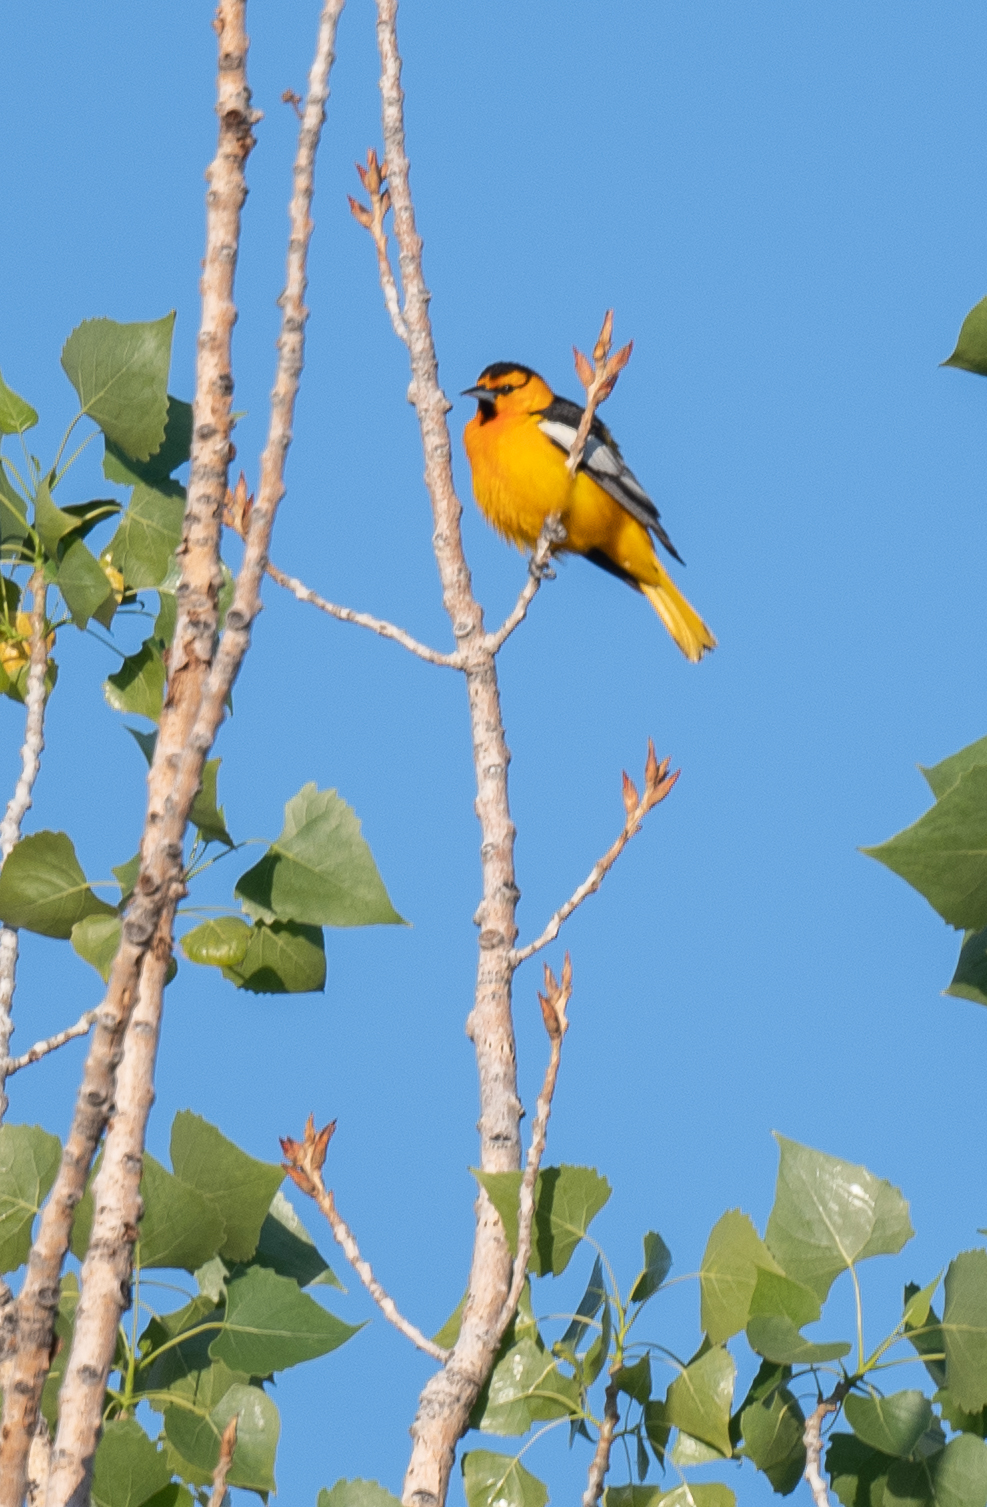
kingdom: Animalia
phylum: Chordata
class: Aves
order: Passeriformes
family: Icteridae
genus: Icterus
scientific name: Icterus bullockii
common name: Bullock's oriole
